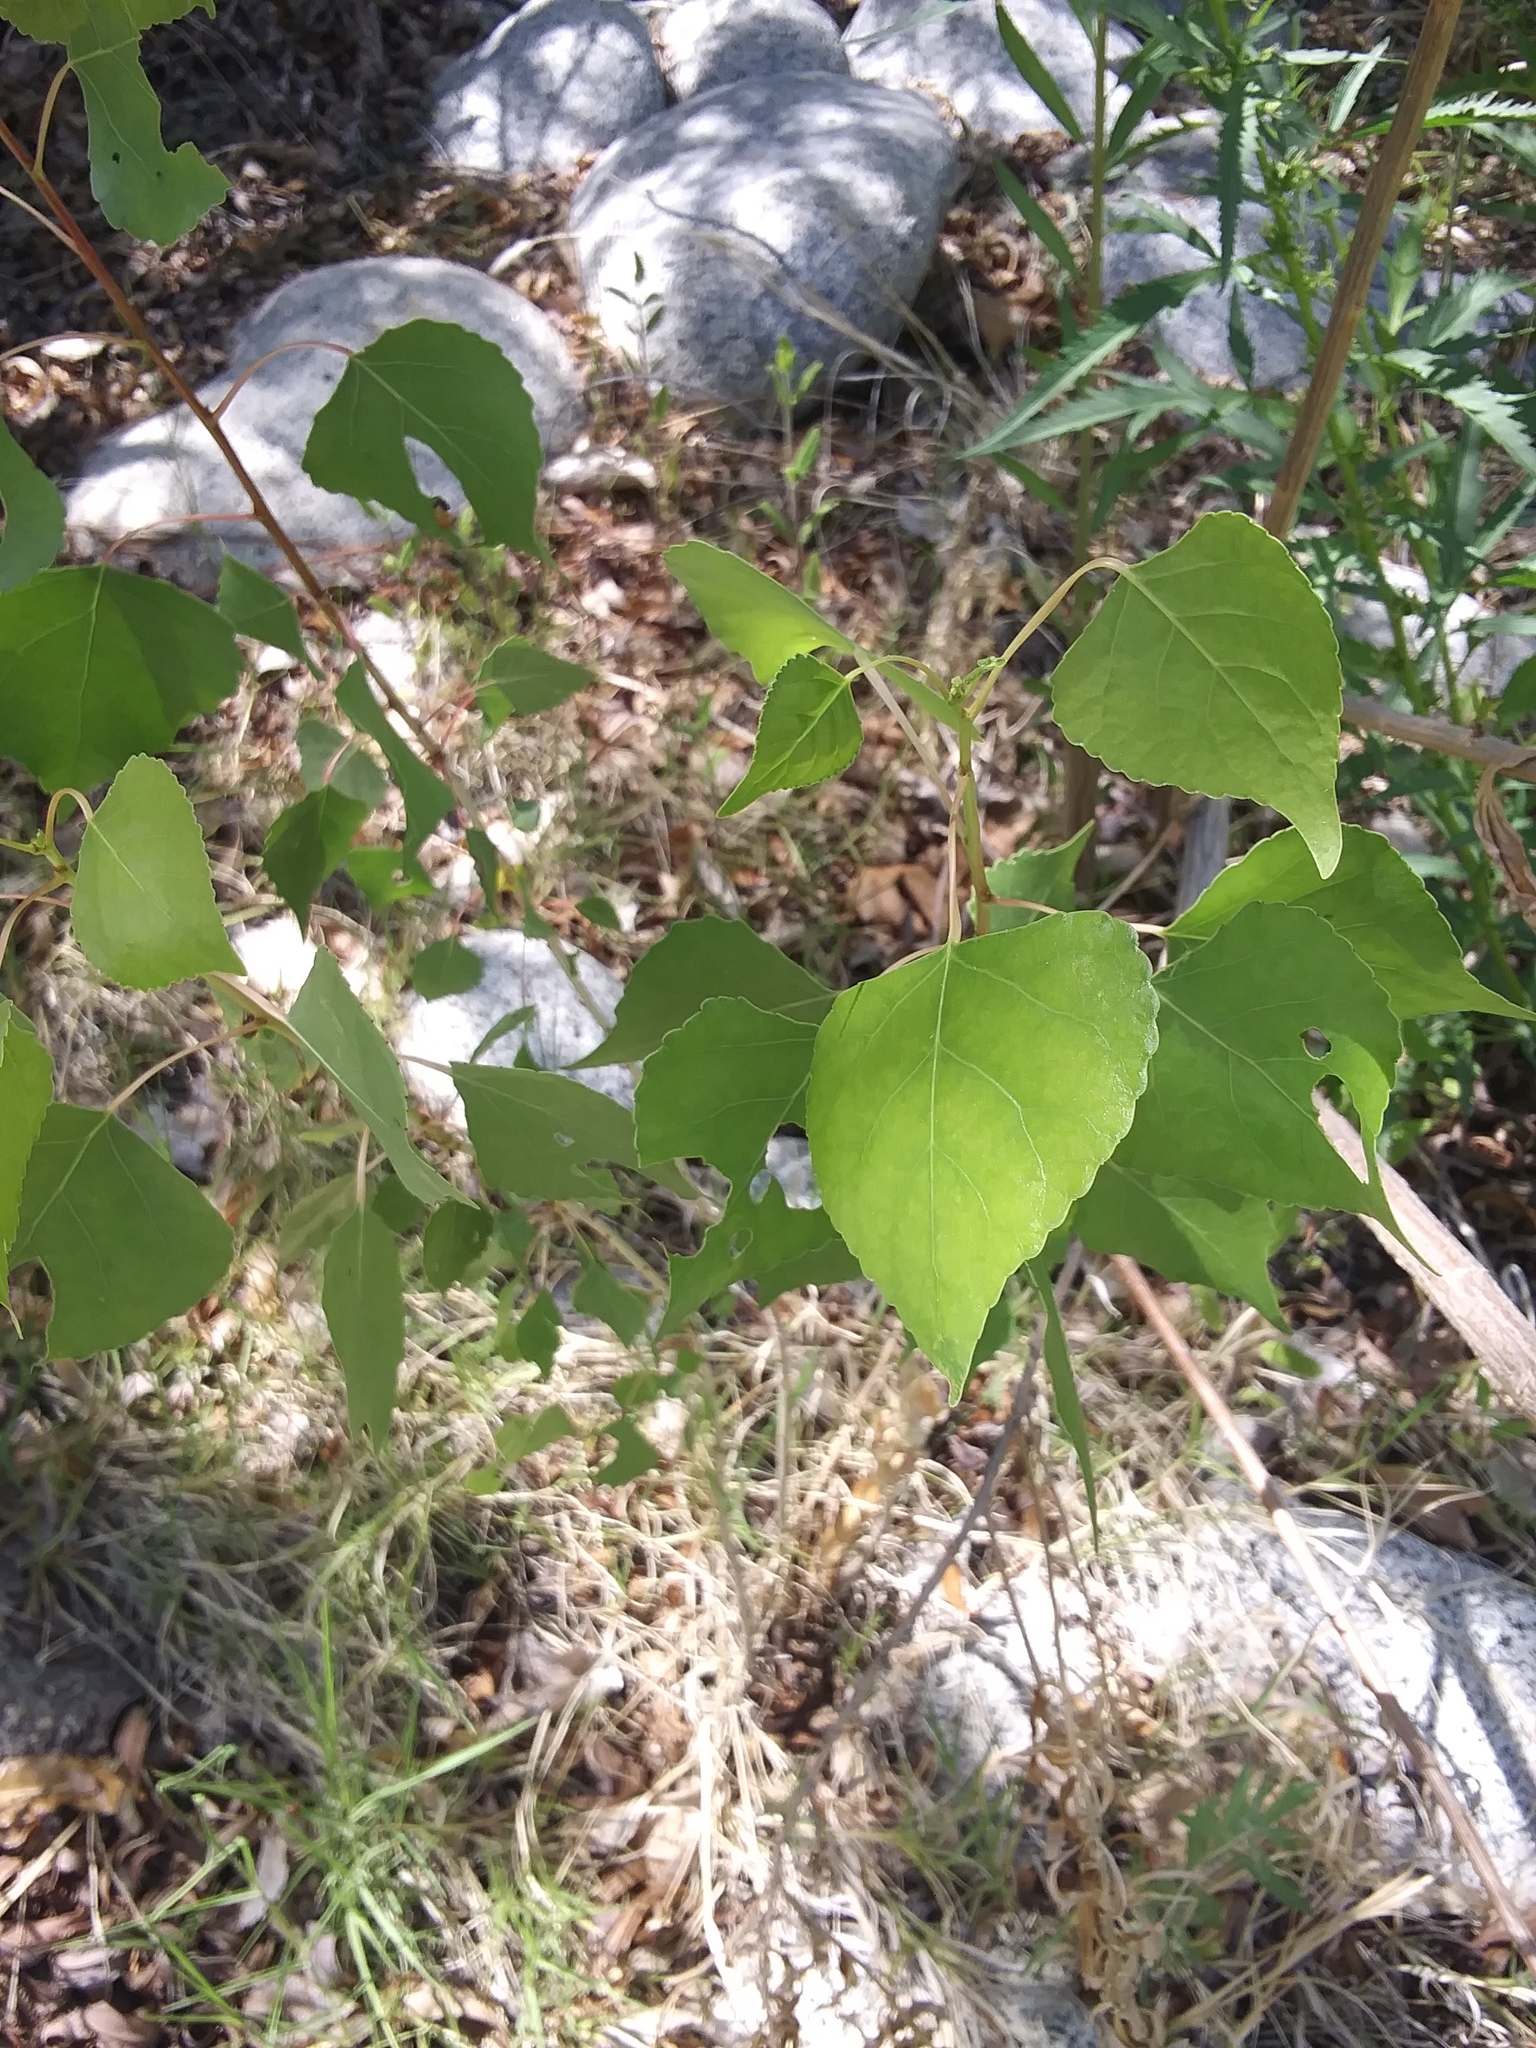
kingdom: Plantae
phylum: Tracheophyta
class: Magnoliopsida
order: Malpighiales
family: Salicaceae
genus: Populus
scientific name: Populus fremontii
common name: Fremont's cottonwood
